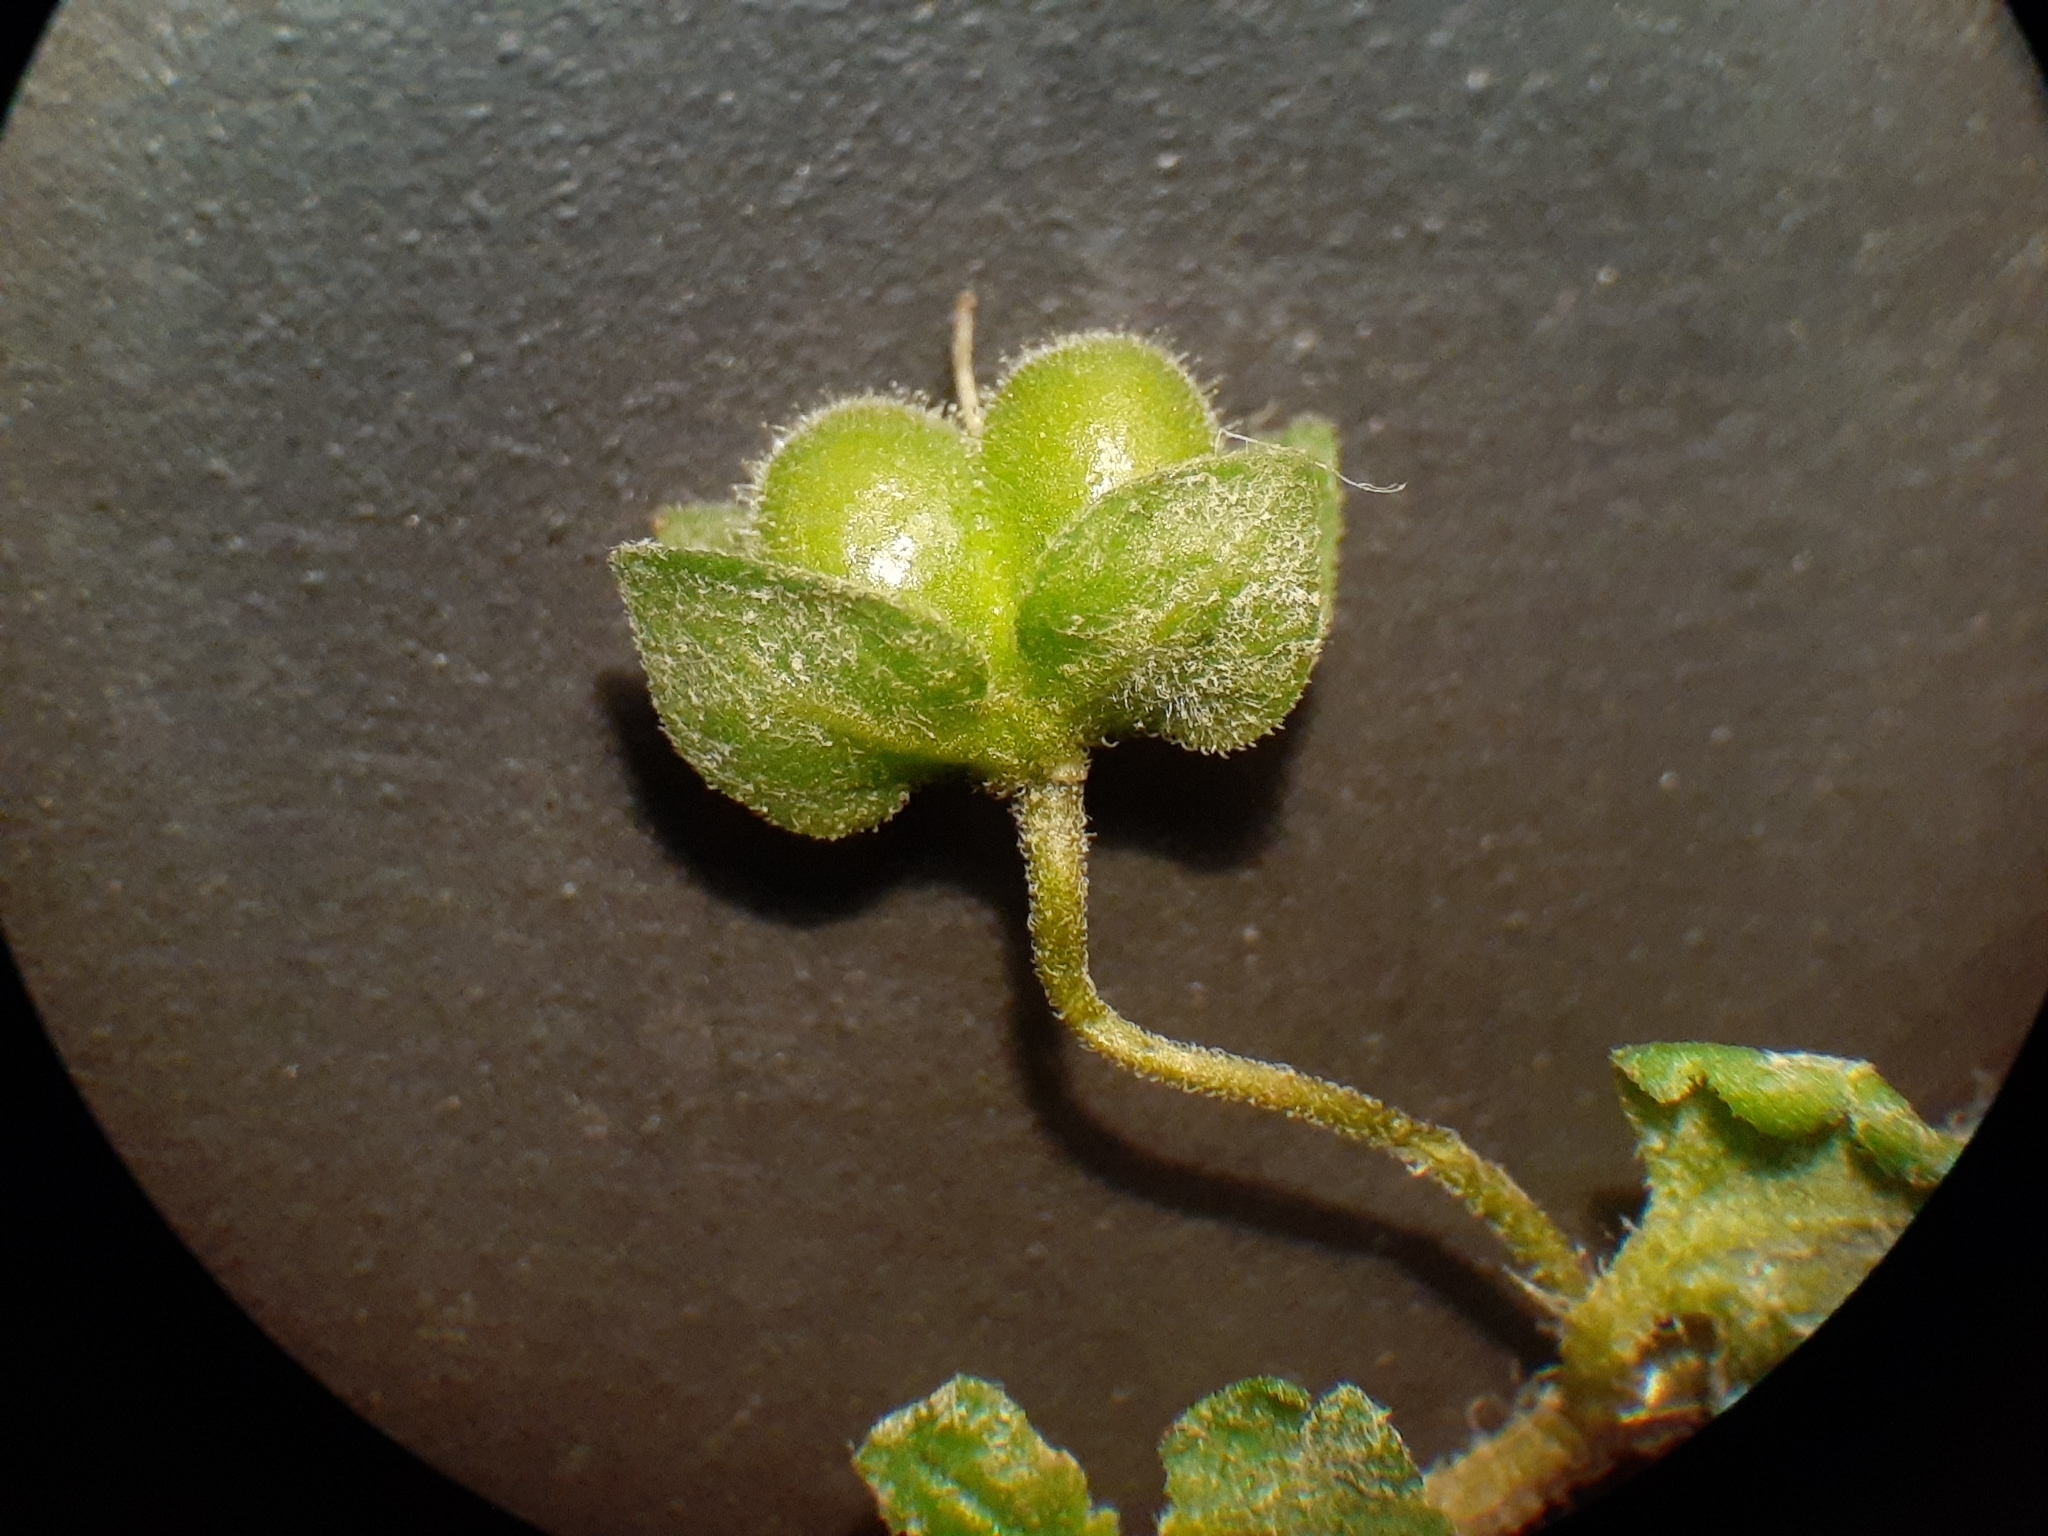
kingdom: Plantae
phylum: Tracheophyta
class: Magnoliopsida
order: Lamiales
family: Plantaginaceae
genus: Veronica
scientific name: Veronica polita
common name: Grey field-speedwell
